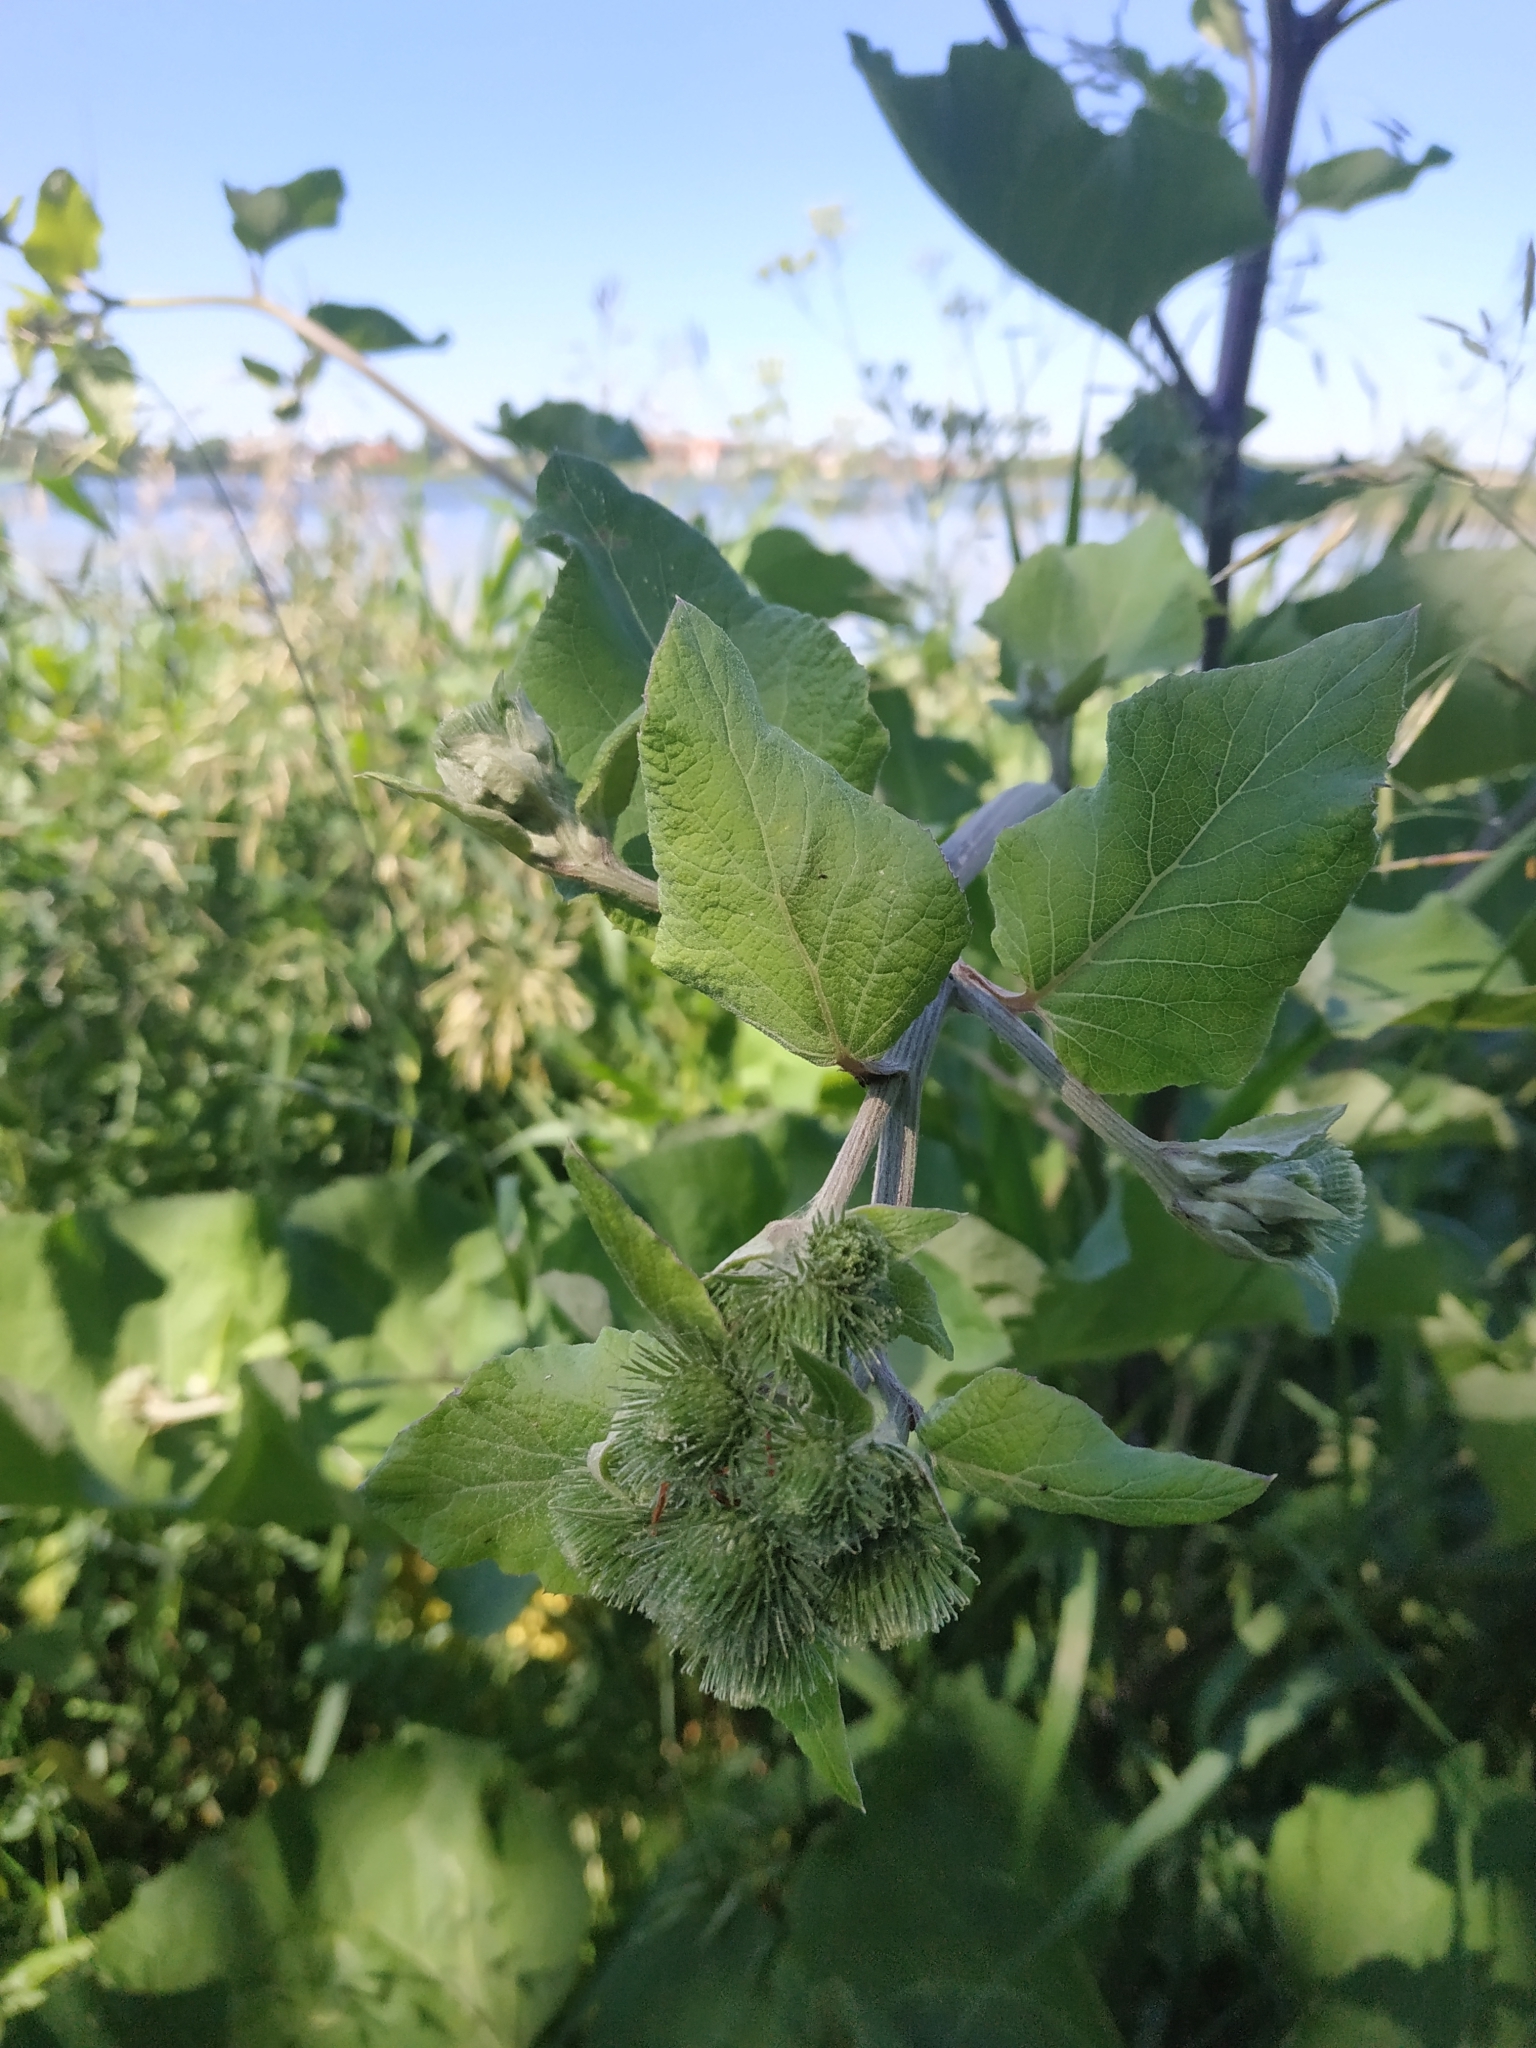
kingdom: Plantae
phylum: Tracheophyta
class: Magnoliopsida
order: Asterales
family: Asteraceae
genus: Arctium
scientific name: Arctium lappa
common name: Greater burdock
